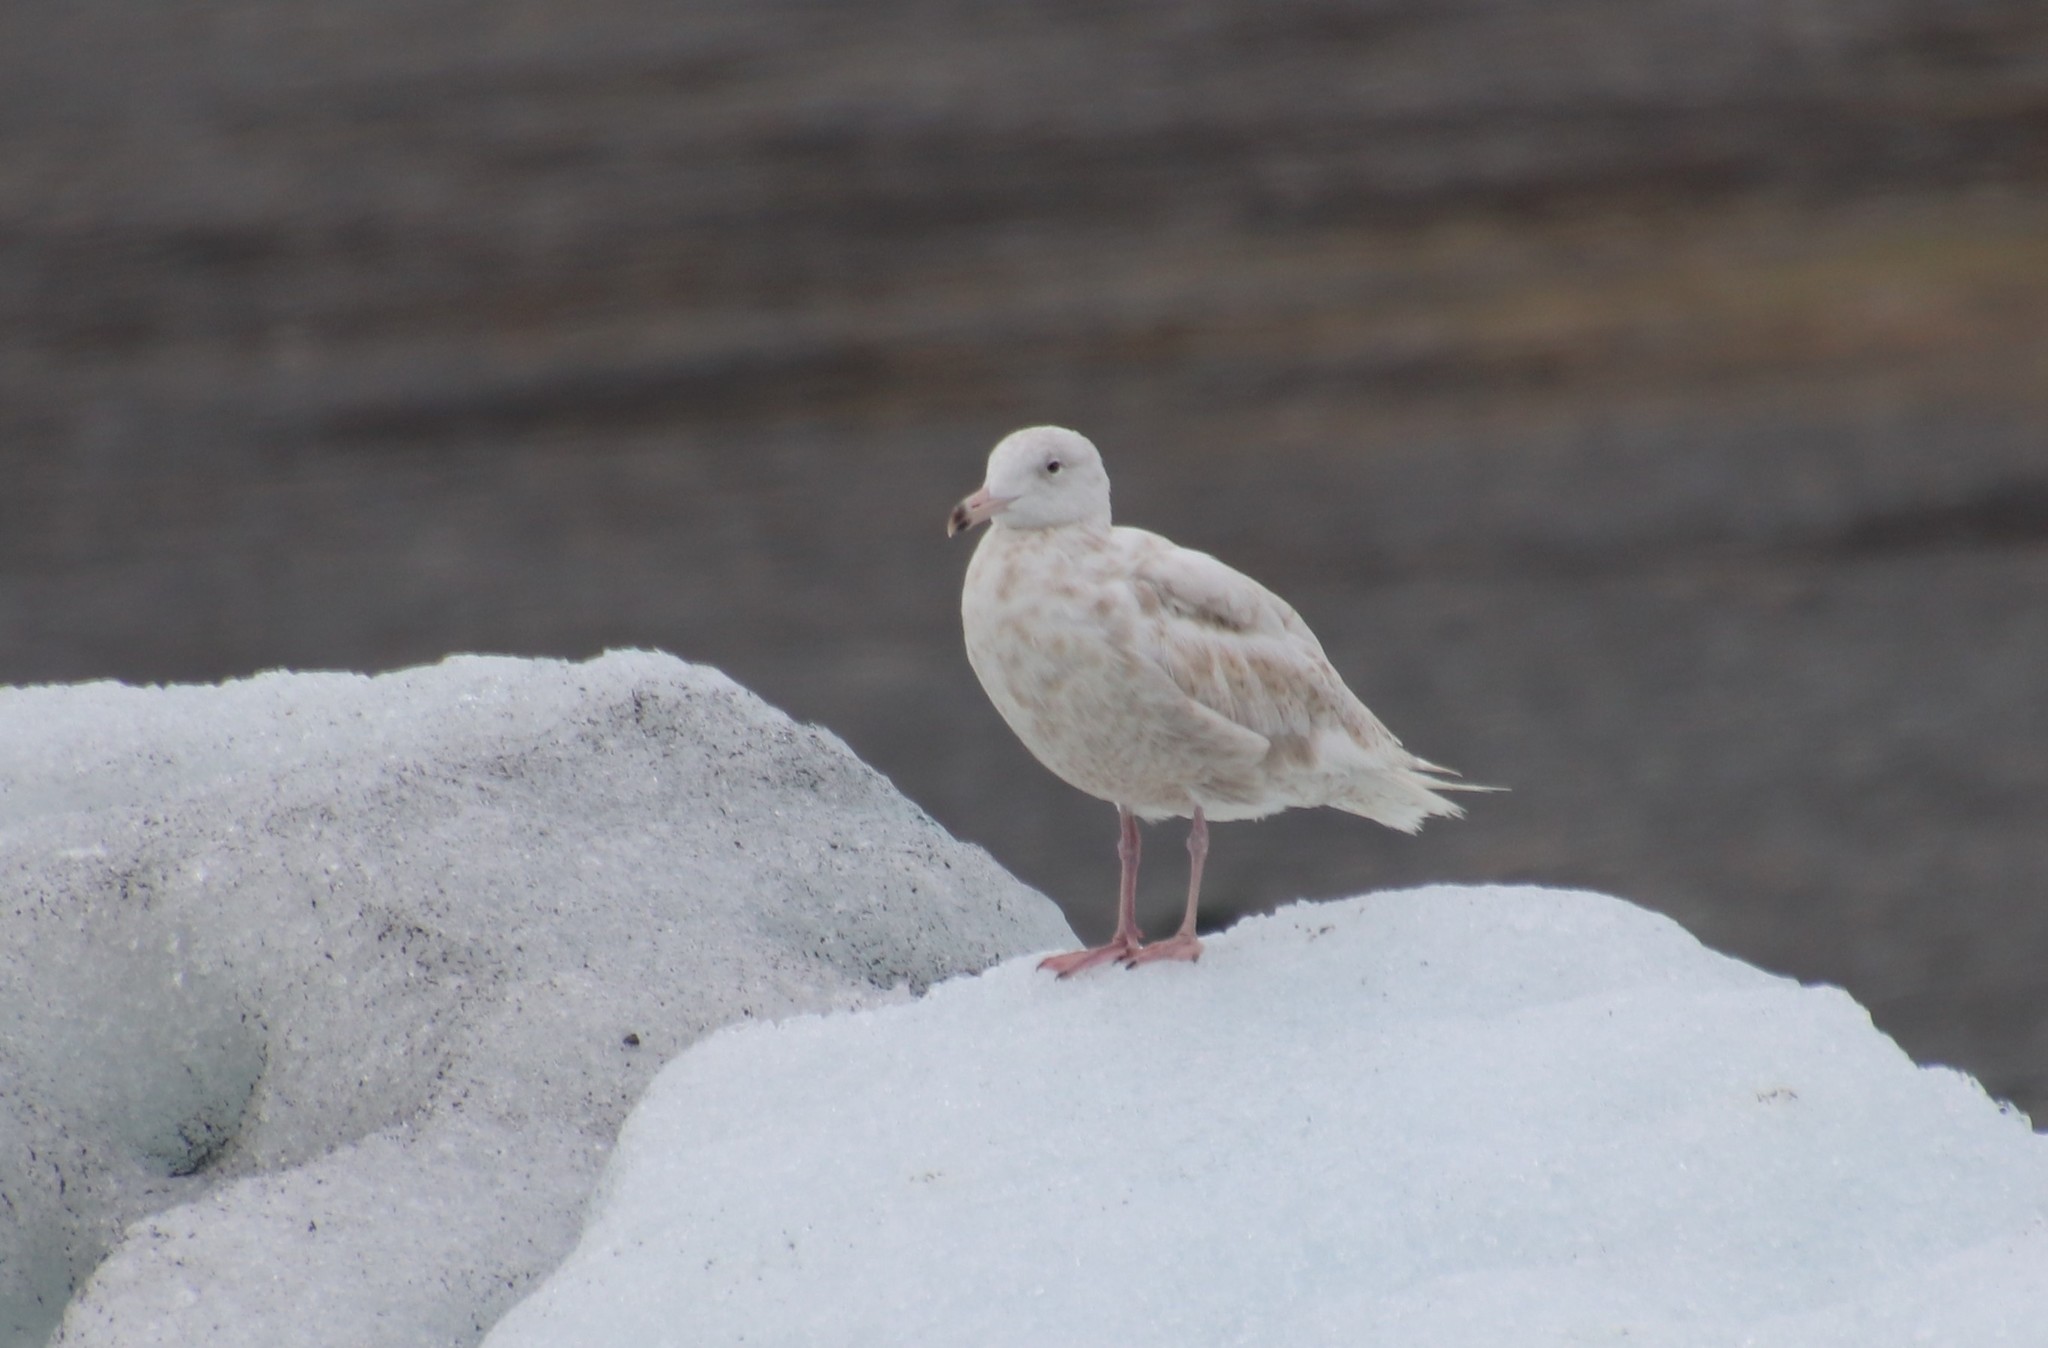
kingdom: Animalia
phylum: Chordata
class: Aves
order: Charadriiformes
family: Laridae
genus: Larus
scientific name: Larus hyperboreus
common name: Glaucous gull
